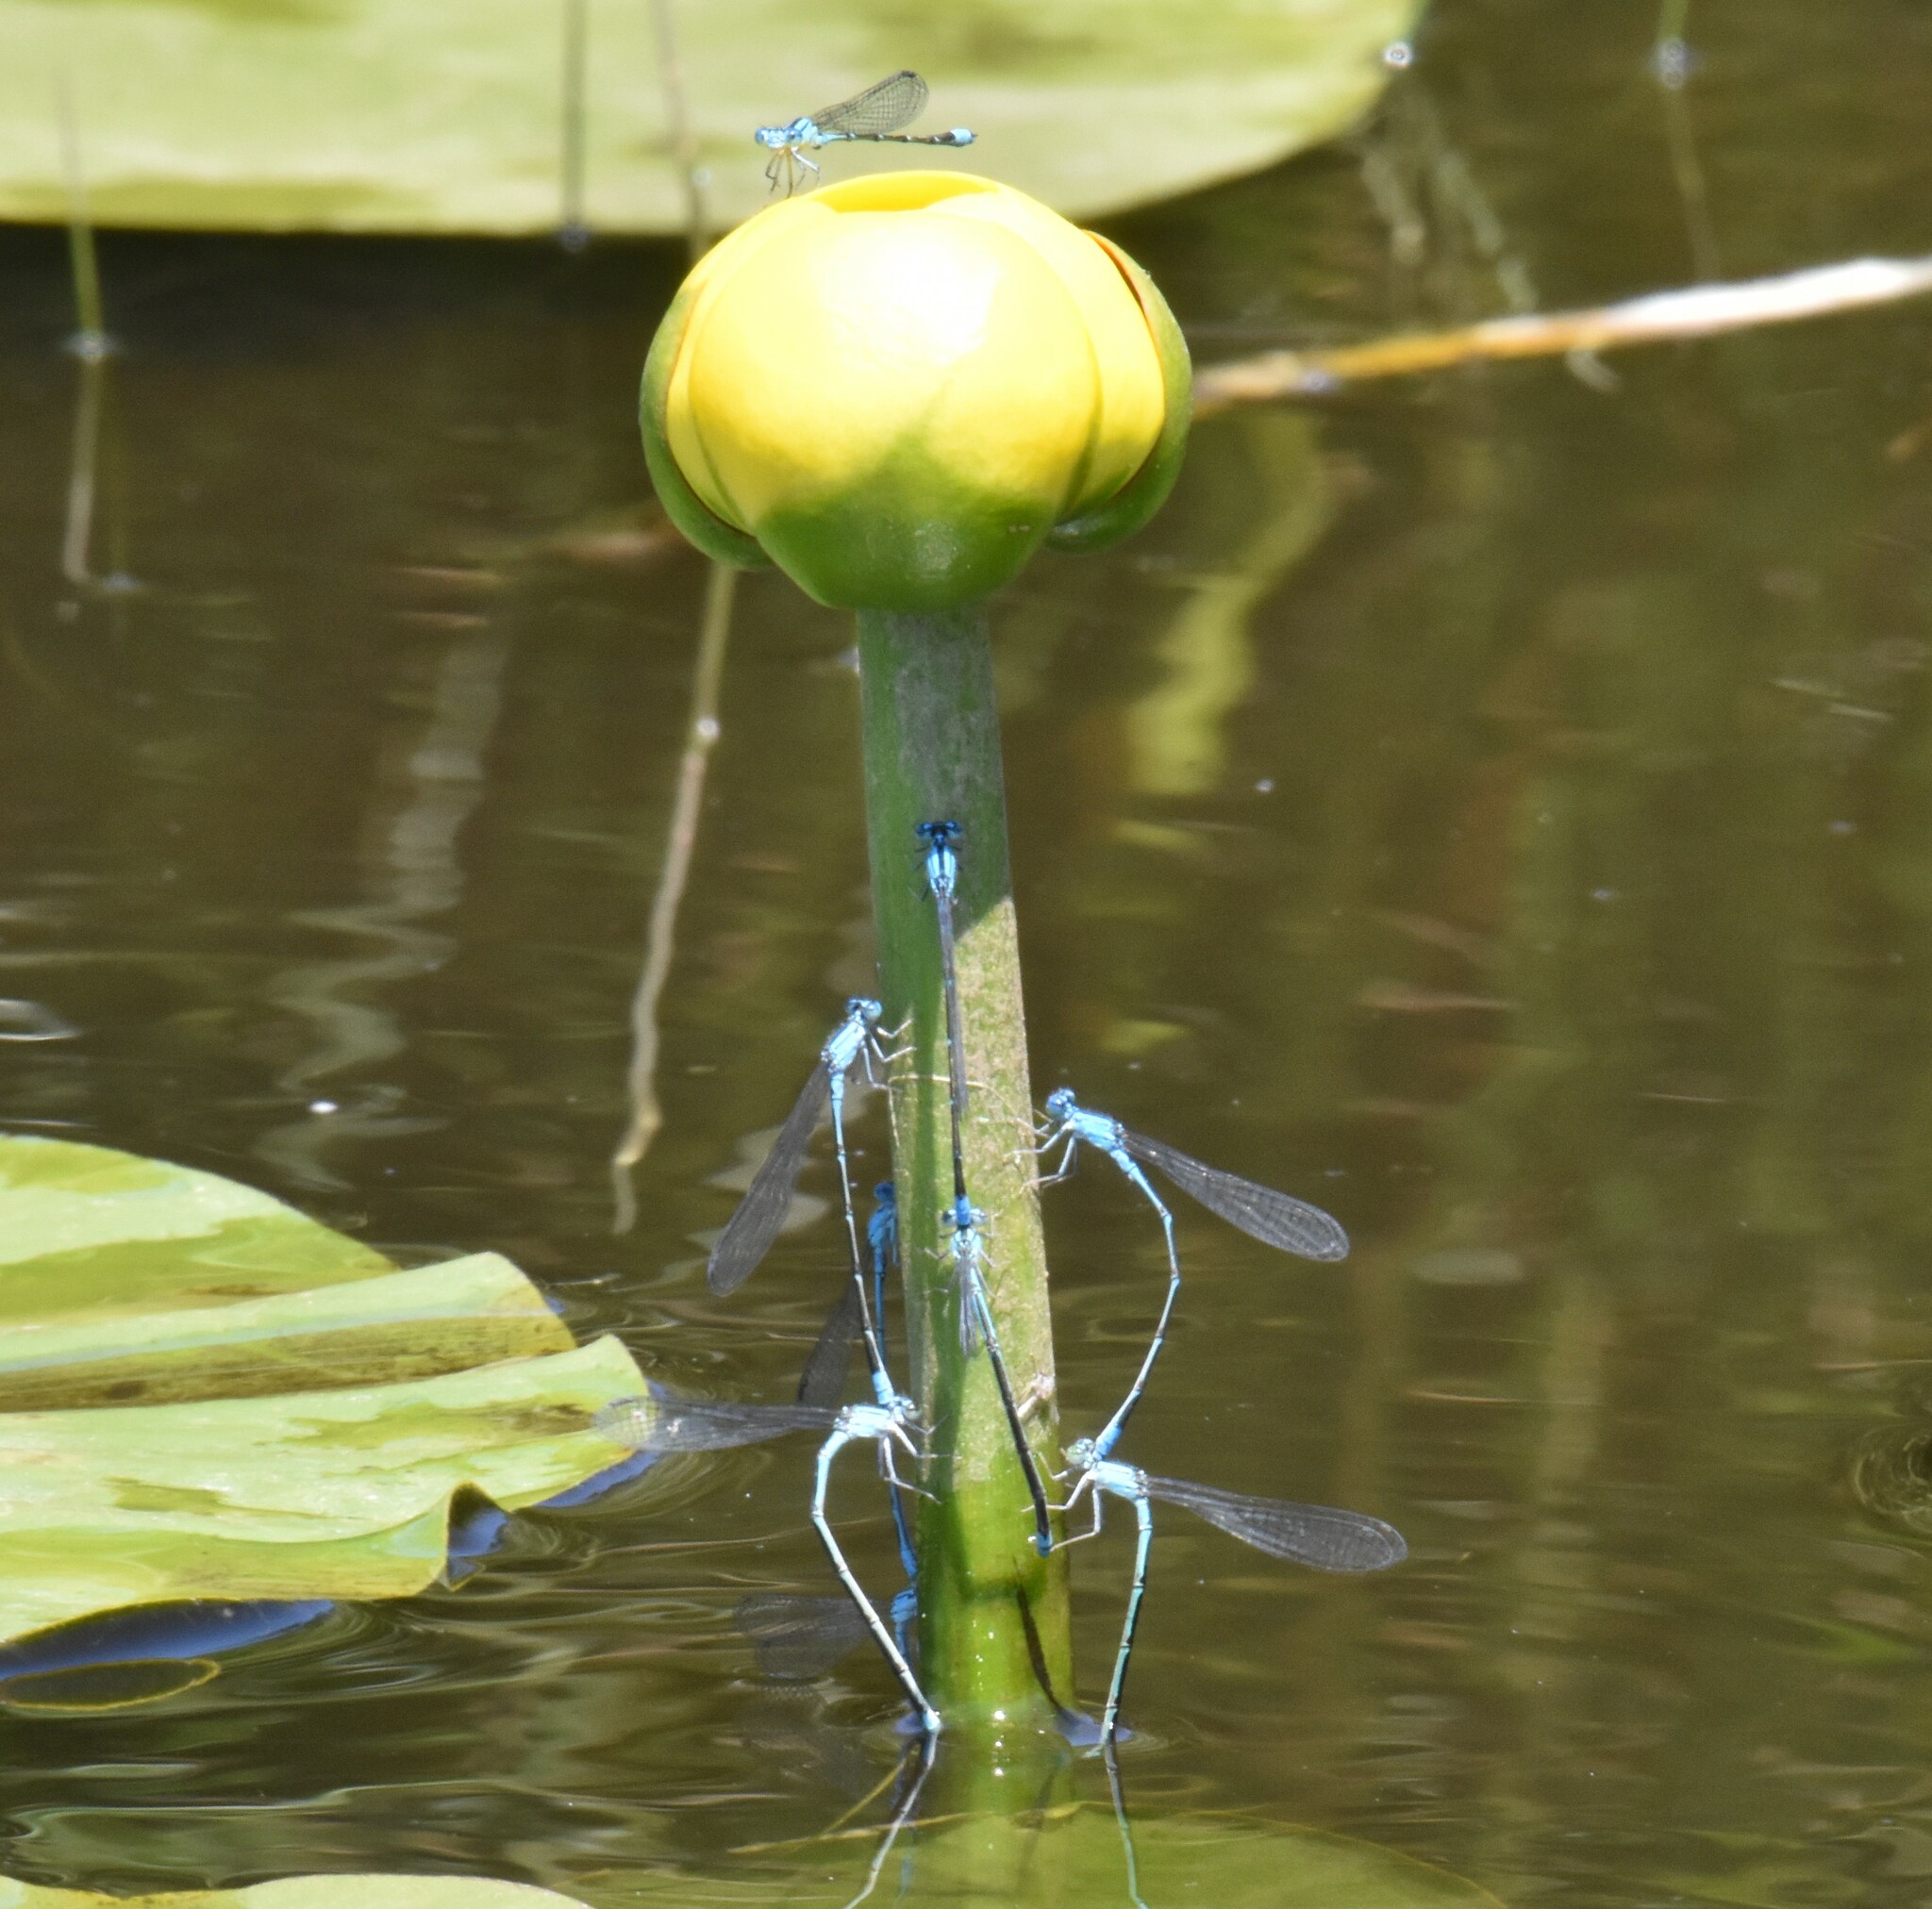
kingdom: Animalia
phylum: Arthropoda
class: Insecta
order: Odonata
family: Coenagrionidae
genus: Enallagma
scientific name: Enallagma traviatum
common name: Slender bluet
